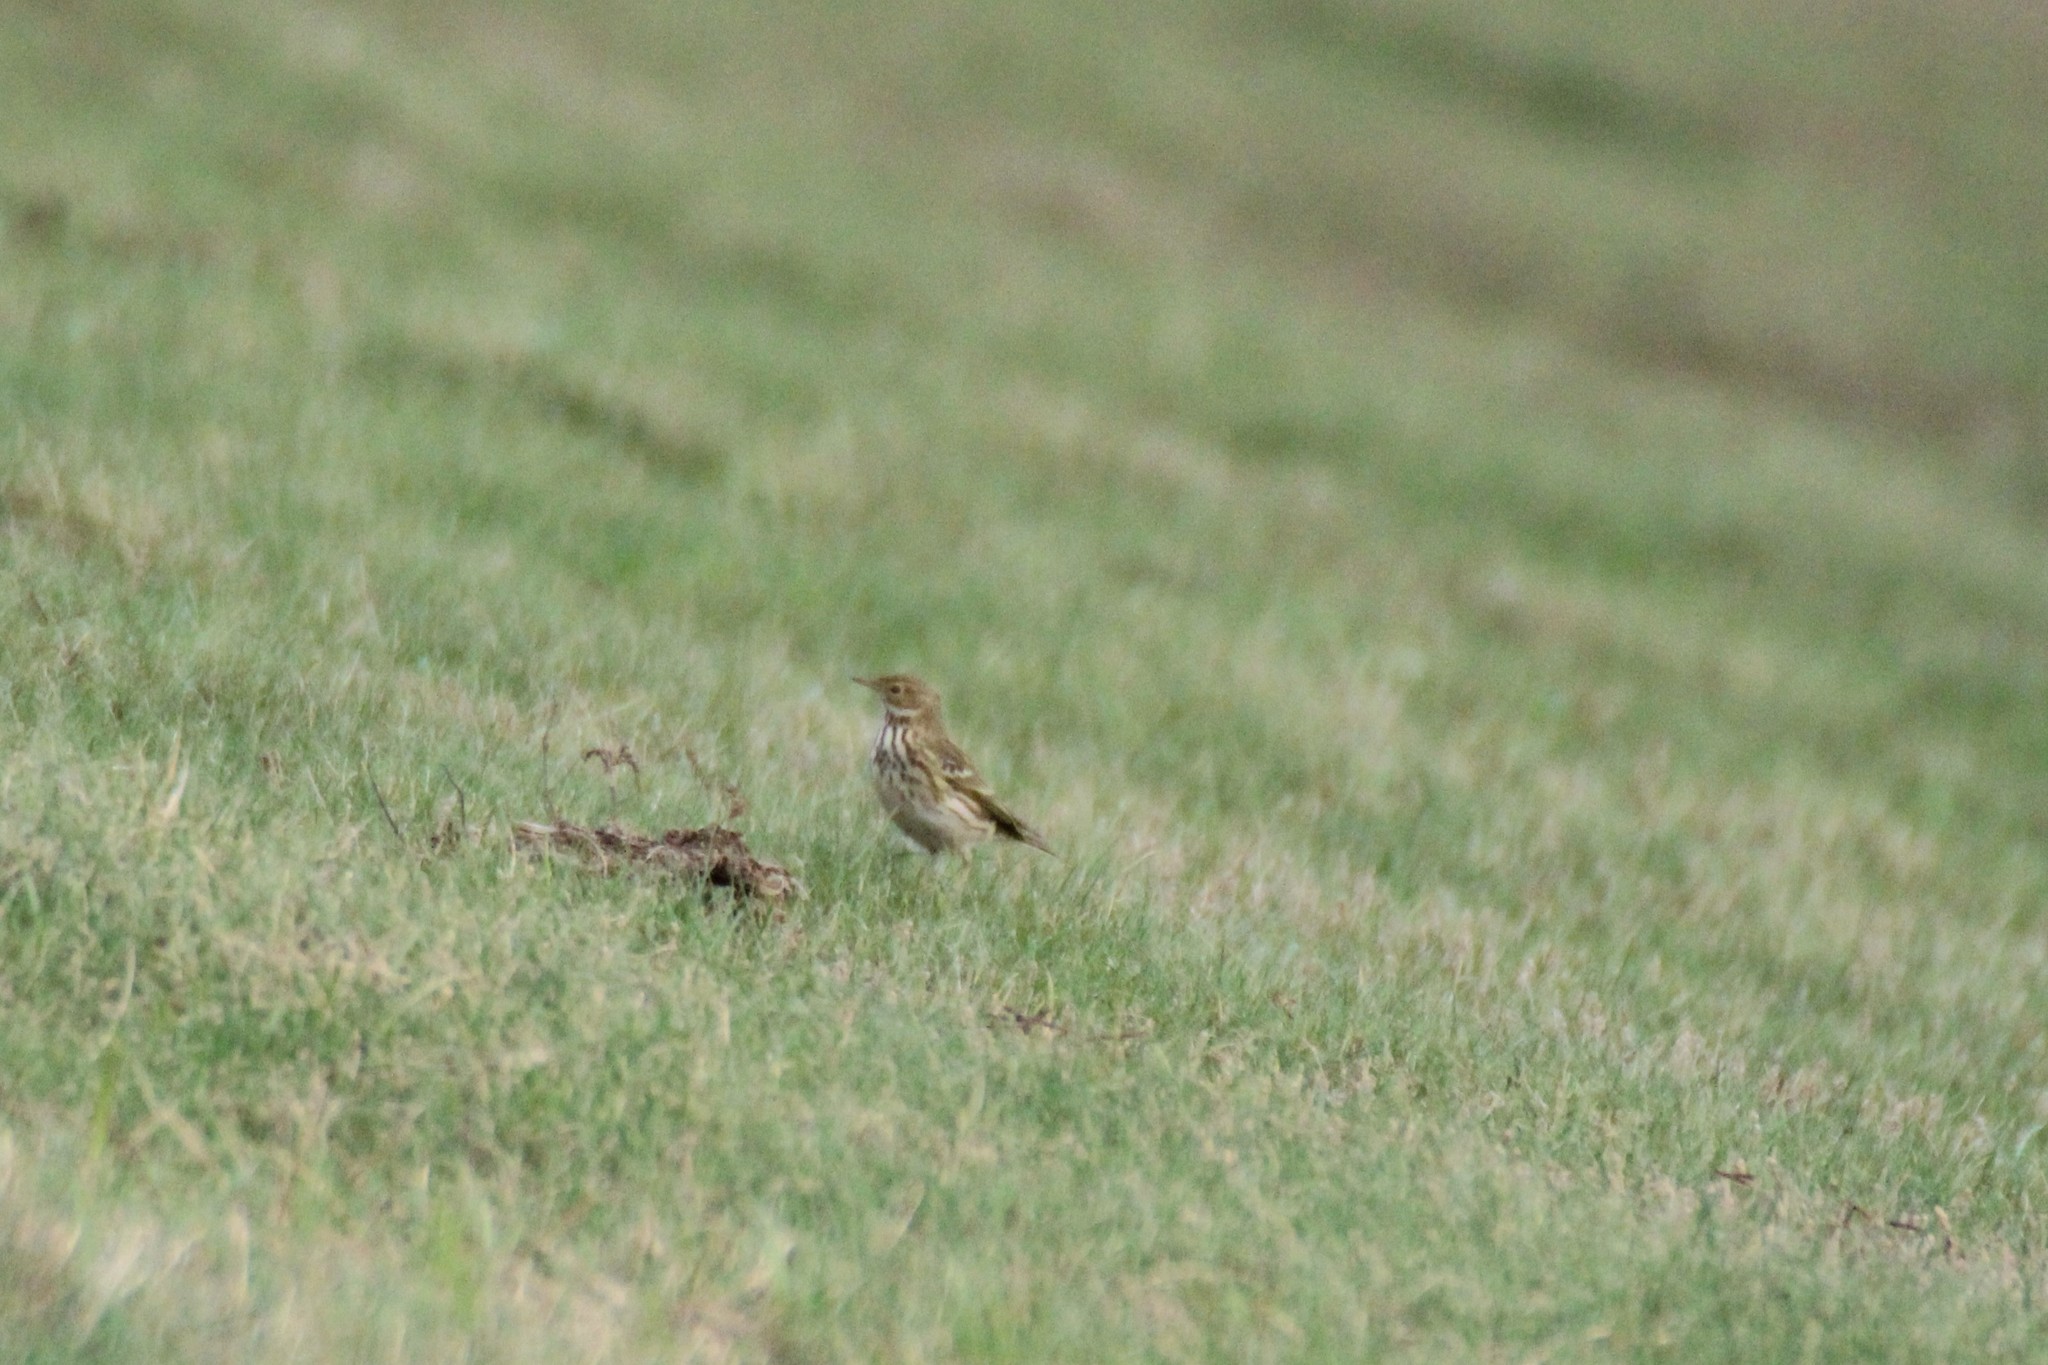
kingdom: Animalia
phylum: Chordata
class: Aves
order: Passeriformes
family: Motacillidae
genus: Anthus
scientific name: Anthus pratensis
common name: Meadow pipit
